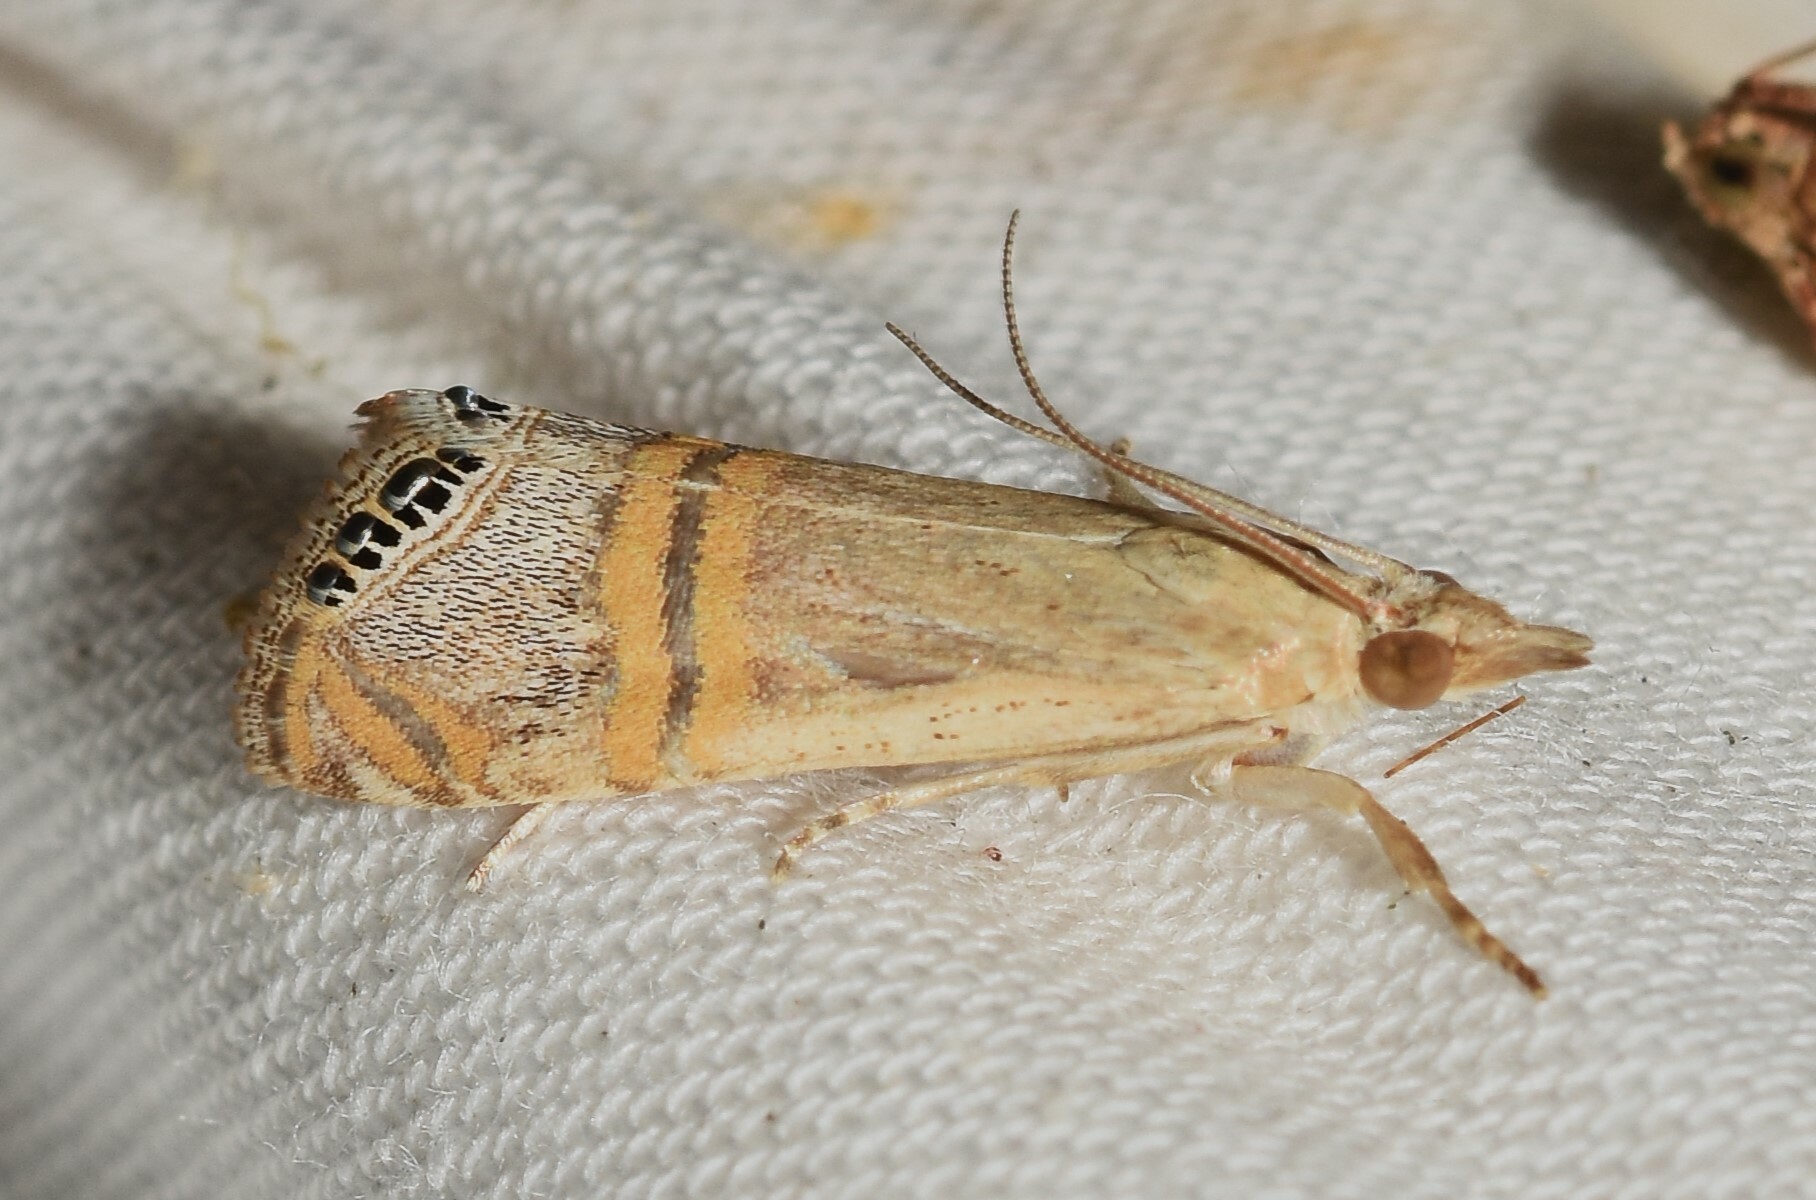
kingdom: Animalia
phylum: Arthropoda
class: Insecta
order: Lepidoptera
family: Crambidae
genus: Euchromius
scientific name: Euchromius ocellea
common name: Necklace veneer moth
